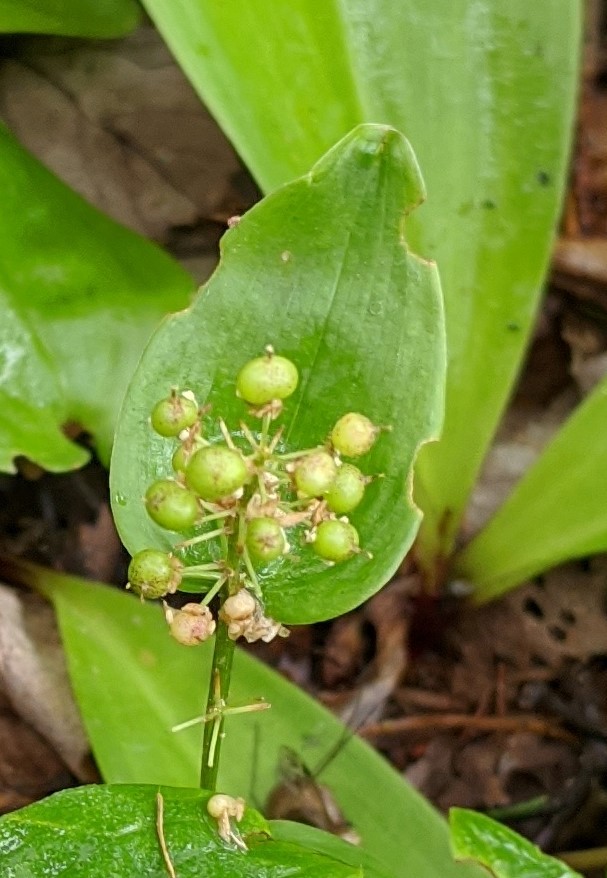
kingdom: Plantae
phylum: Tracheophyta
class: Liliopsida
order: Asparagales
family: Asparagaceae
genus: Maianthemum
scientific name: Maianthemum canadense
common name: False lily-of-the-valley
